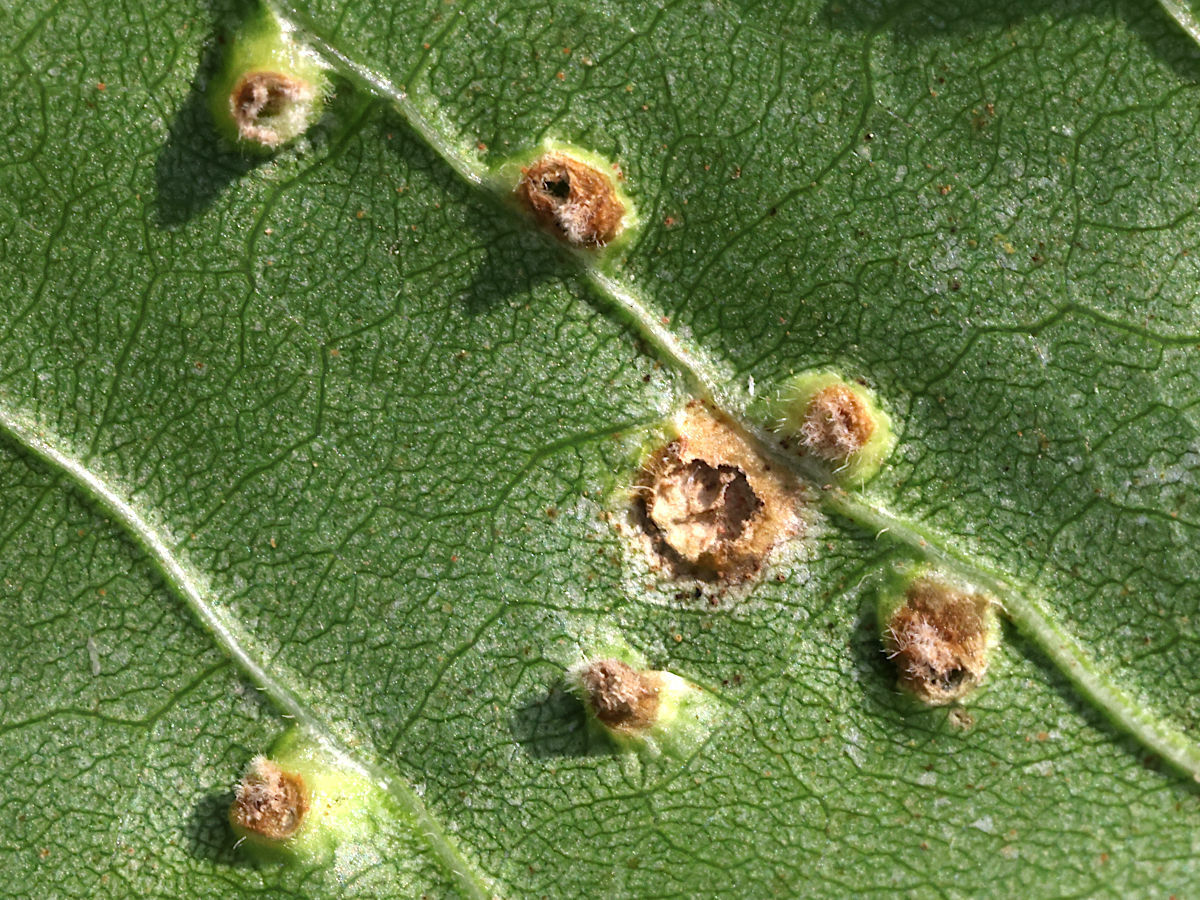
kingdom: Animalia
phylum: Arthropoda
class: Arachnida
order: Trombidiformes
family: Eriophyidae
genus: Aceria
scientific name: Aceria fraxinicola
